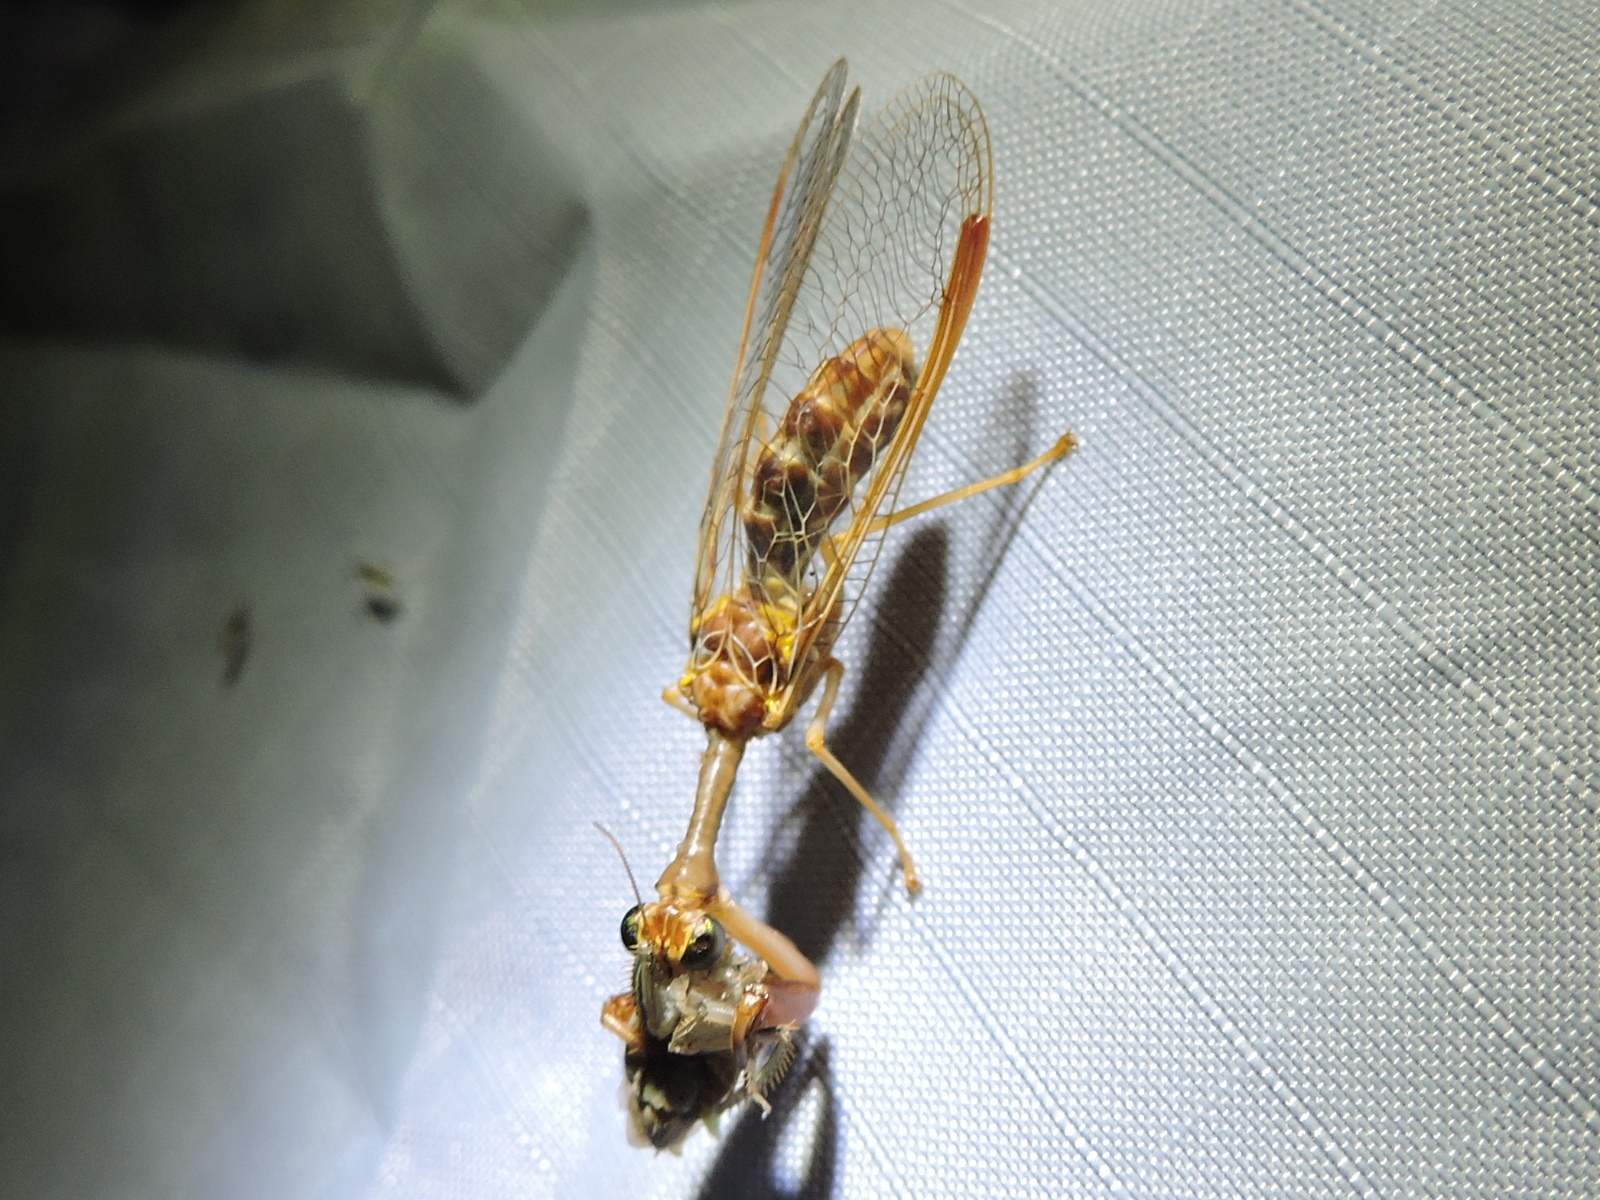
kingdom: Animalia
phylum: Arthropoda
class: Insecta
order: Neuroptera
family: Mantispidae
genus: Dicromantispa
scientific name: Dicromantispa sayi
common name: Say's mantidfly
